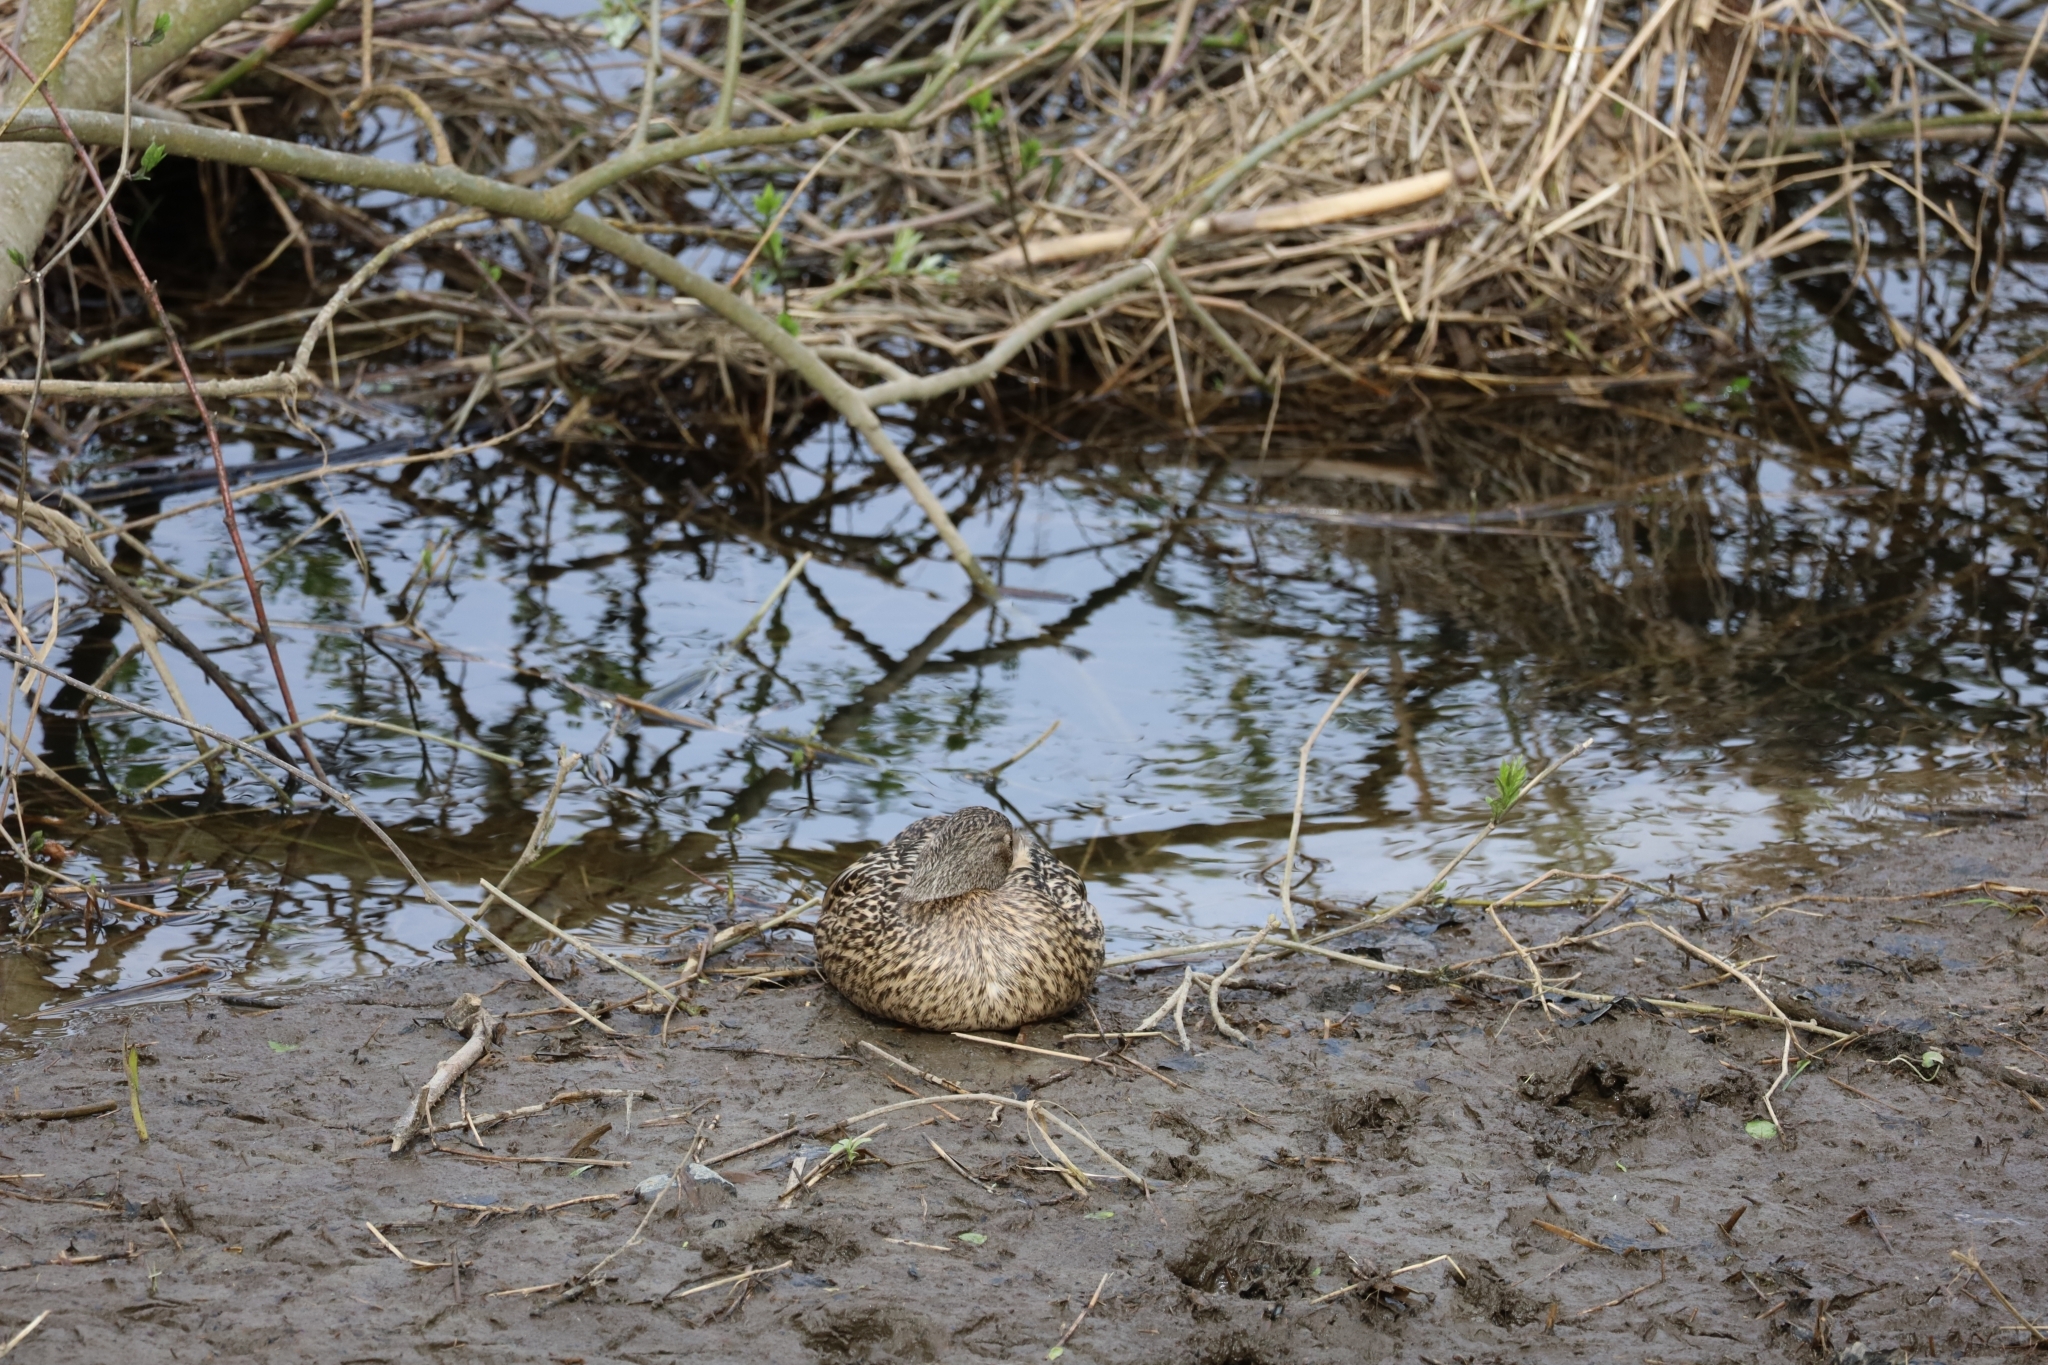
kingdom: Animalia
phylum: Chordata
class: Aves
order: Anseriformes
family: Anatidae
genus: Anas
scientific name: Anas platyrhynchos
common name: Mallard
